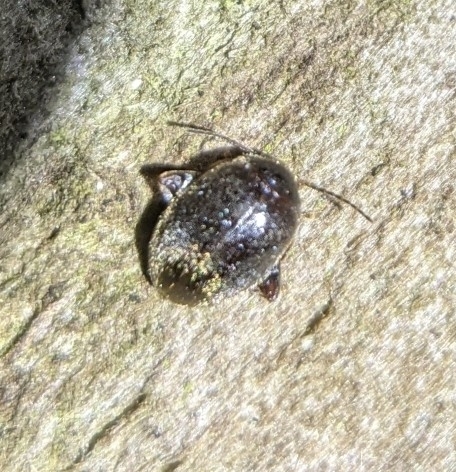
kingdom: Animalia
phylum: Arthropoda
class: Insecta
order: Coleoptera
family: Scirtidae
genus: Scirtes
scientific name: Scirtes tibialis
